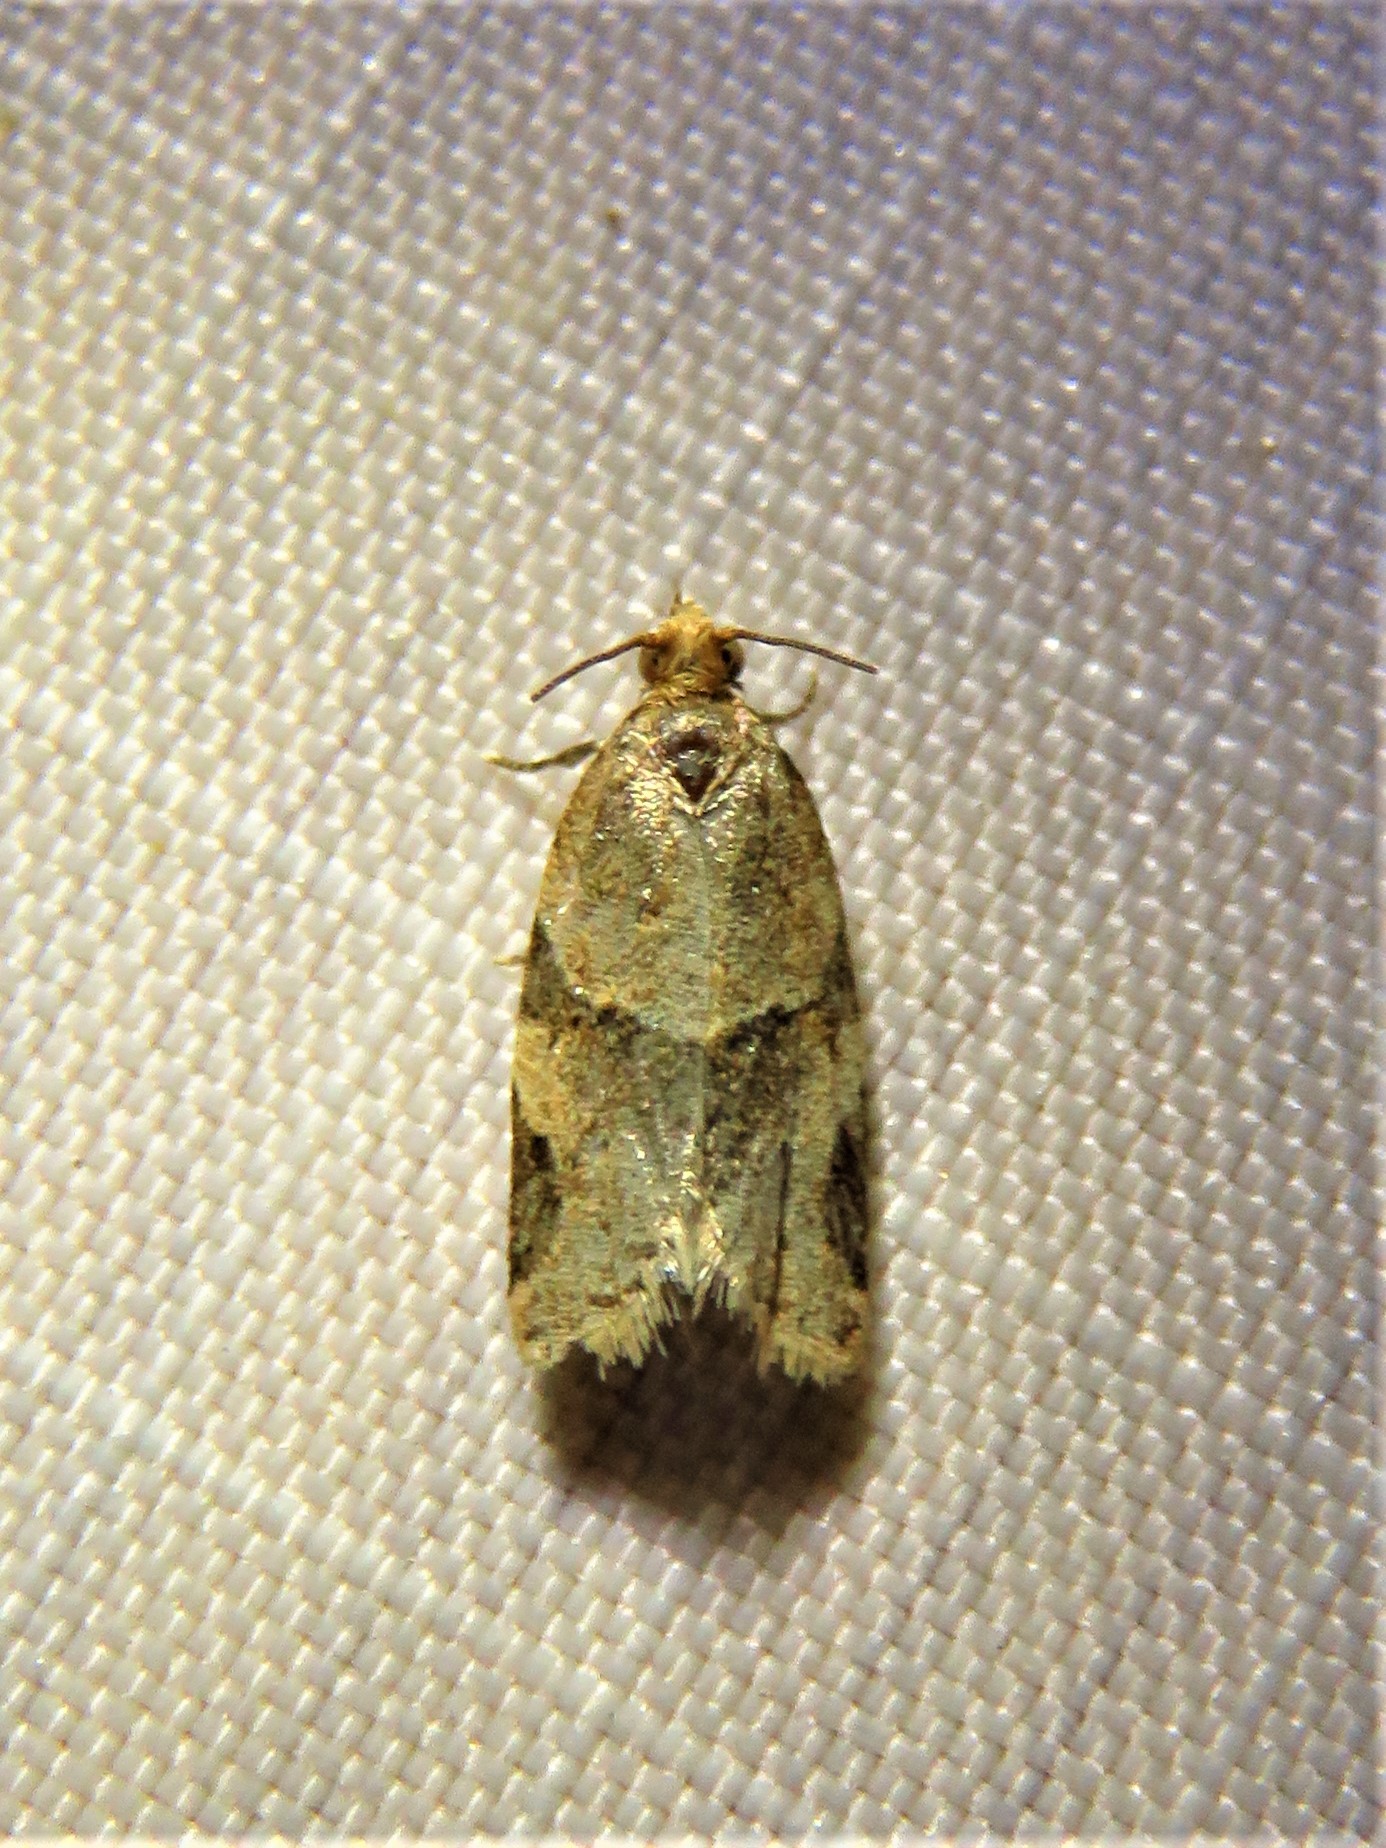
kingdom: Animalia
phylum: Arthropoda
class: Insecta
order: Lepidoptera
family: Tortricidae
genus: Clepsis
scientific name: Clepsis peritana
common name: Garden tortrix
